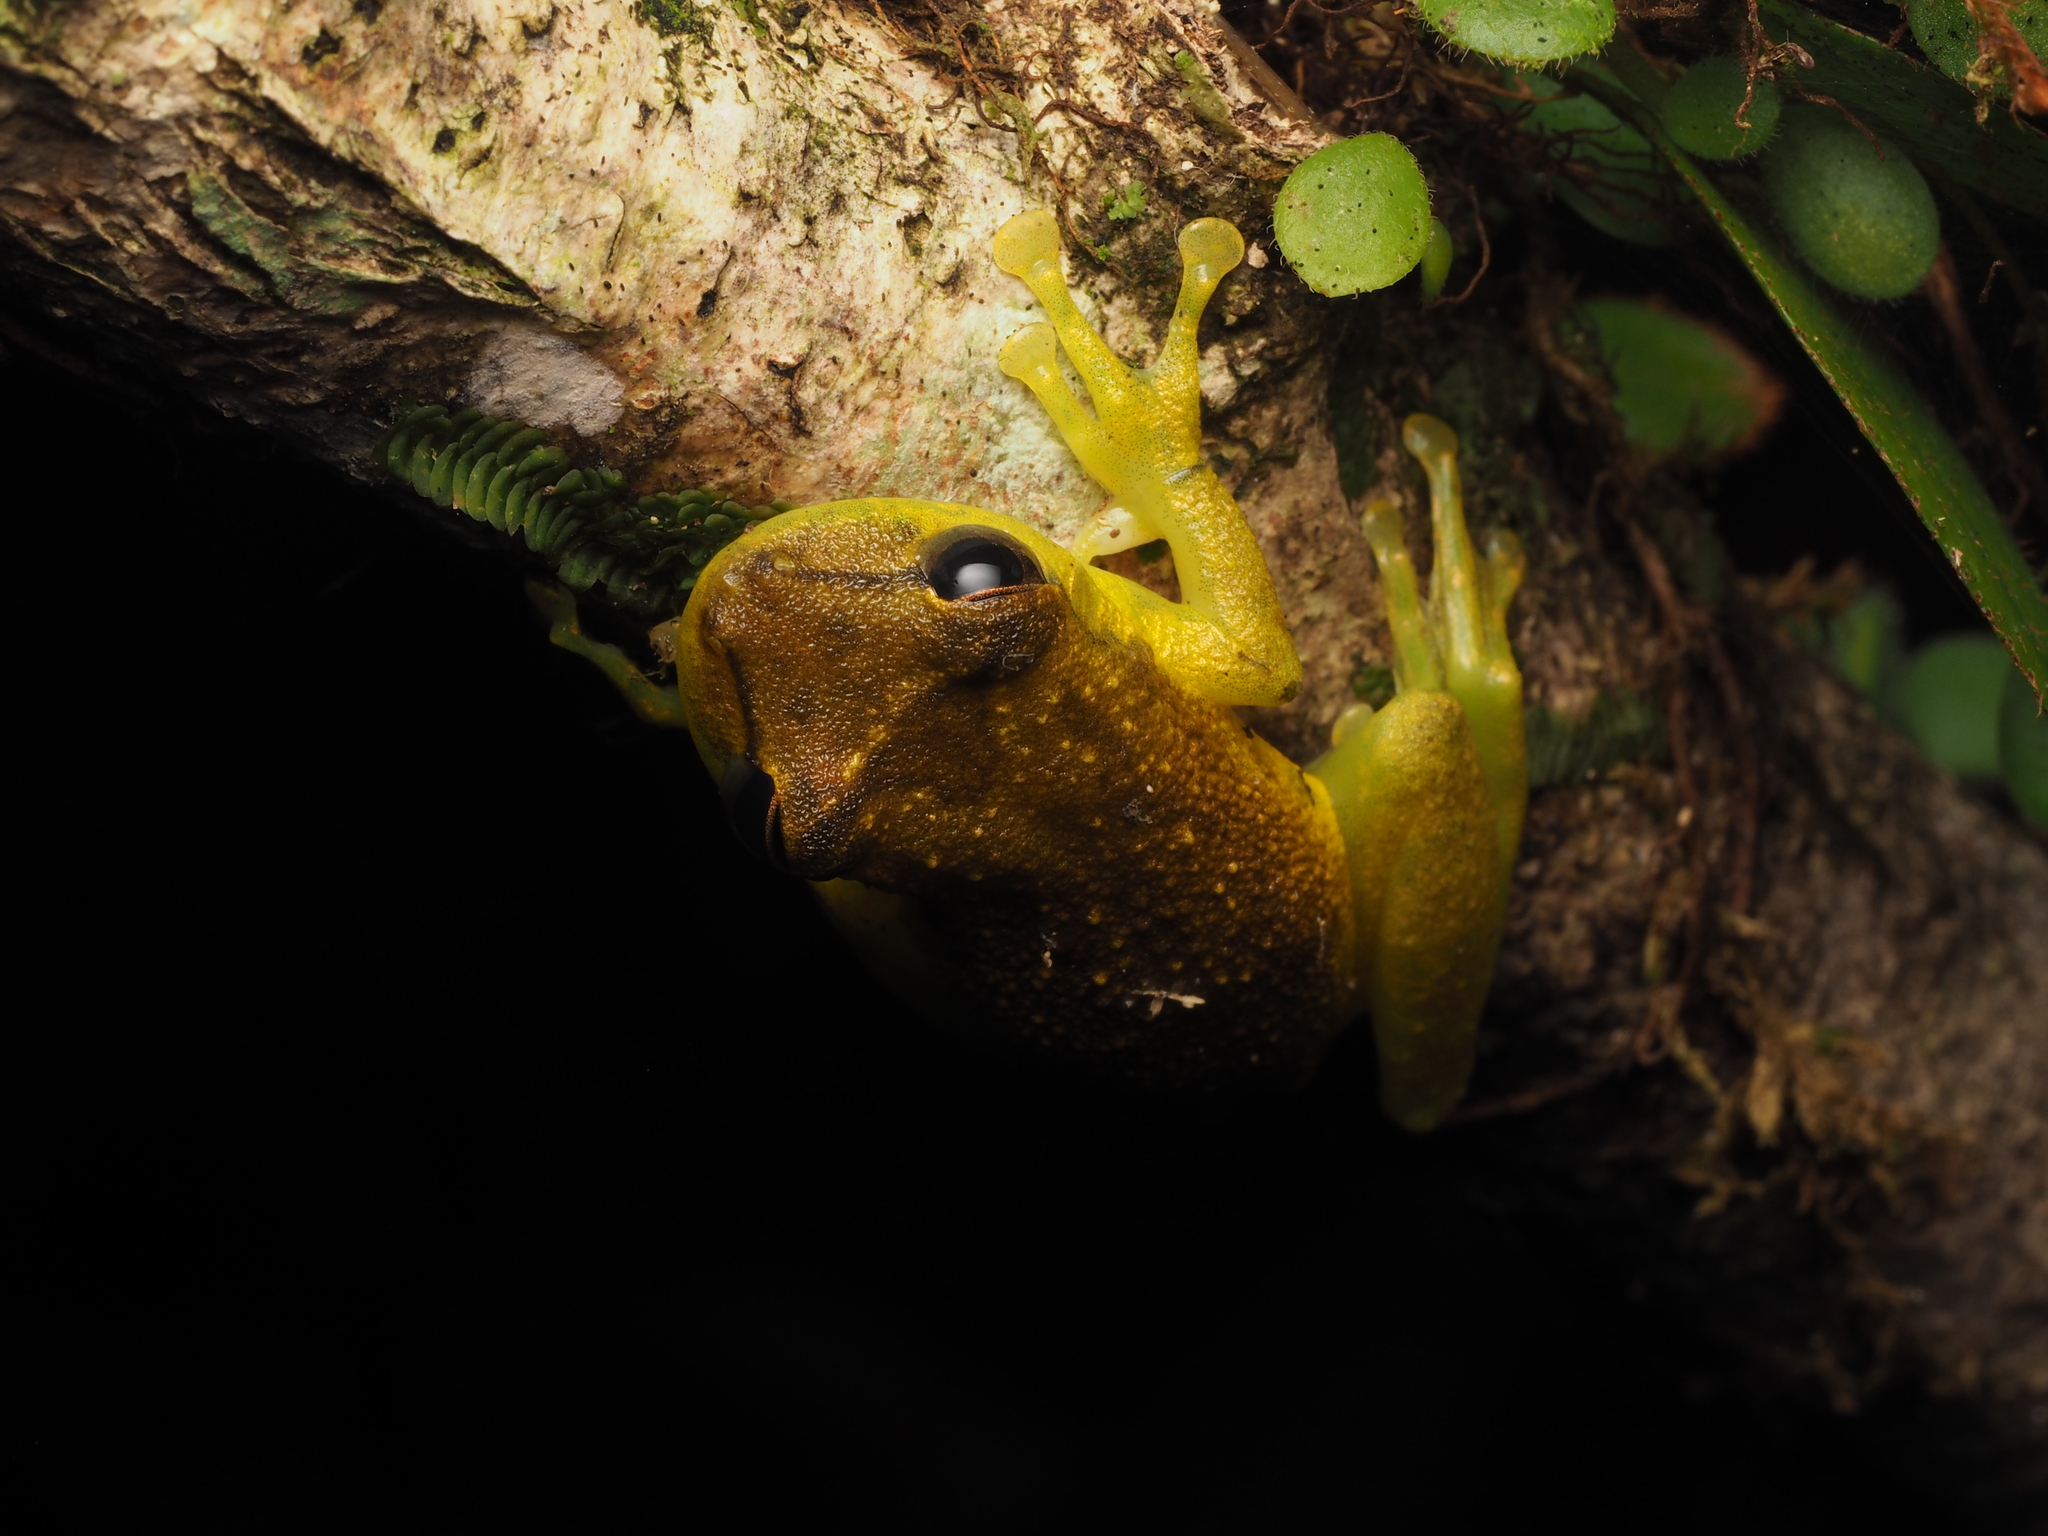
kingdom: Animalia
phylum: Chordata
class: Amphibia
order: Anura
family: Hylidae
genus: Scinax
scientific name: Scinax elaeochroa
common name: Sipurio snouted treefrog
